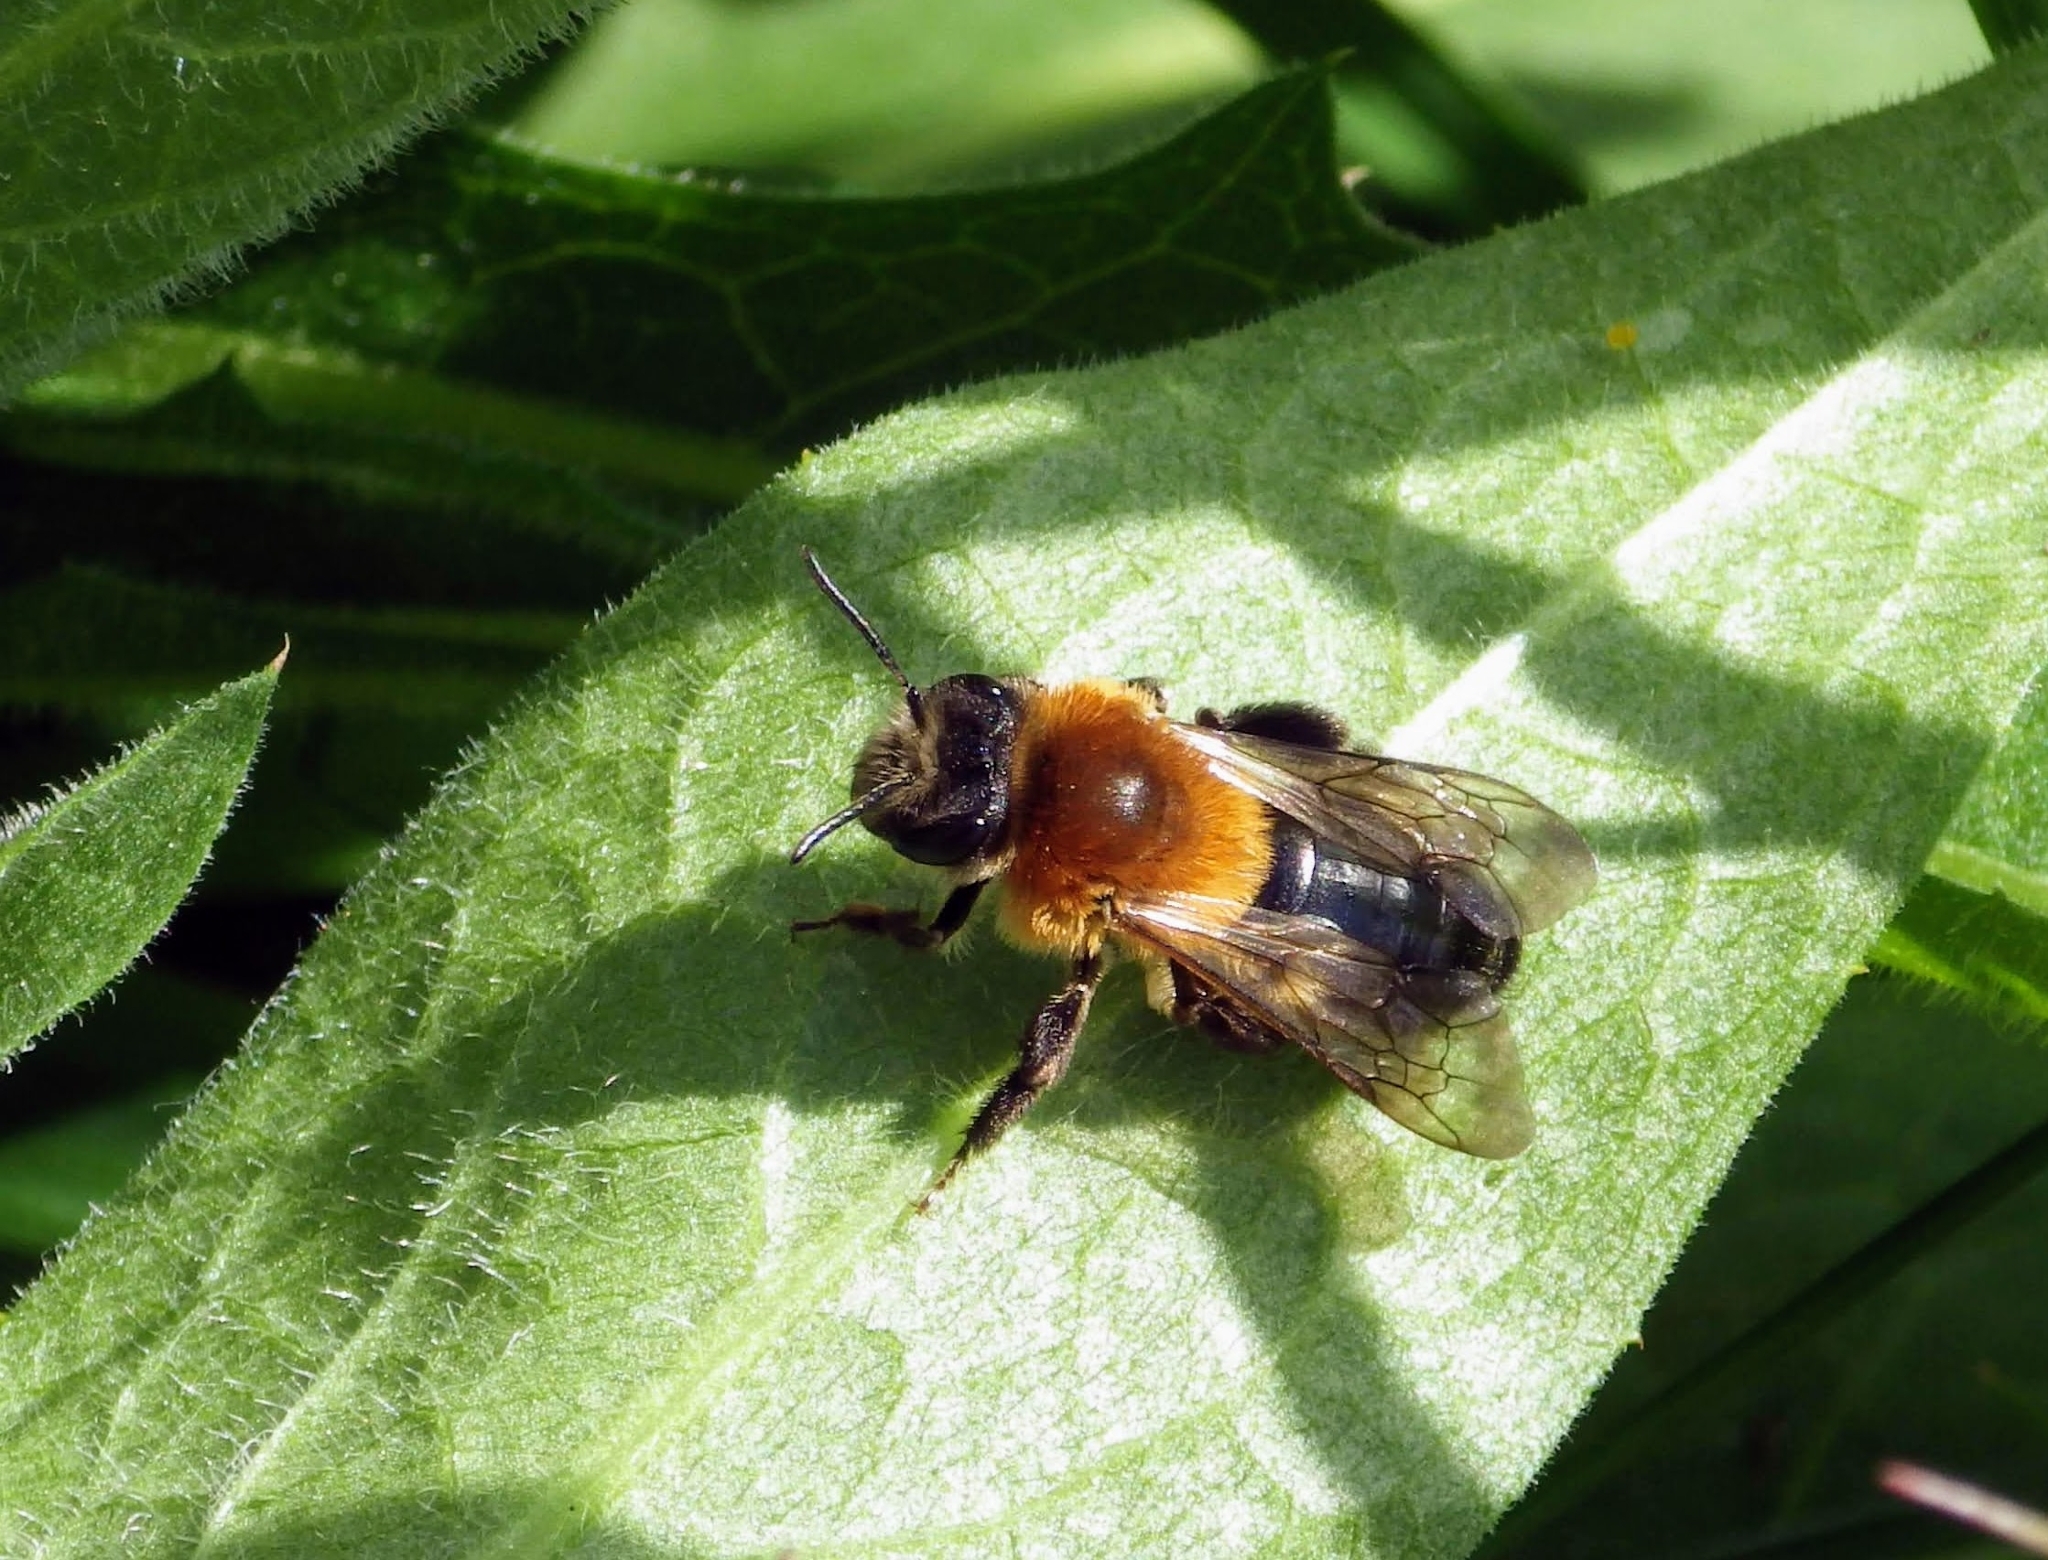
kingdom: Animalia
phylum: Arthropoda
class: Insecta
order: Hymenoptera
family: Andrenidae
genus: Andrena
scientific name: Andrena nitida
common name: Grey-patched mining bee
